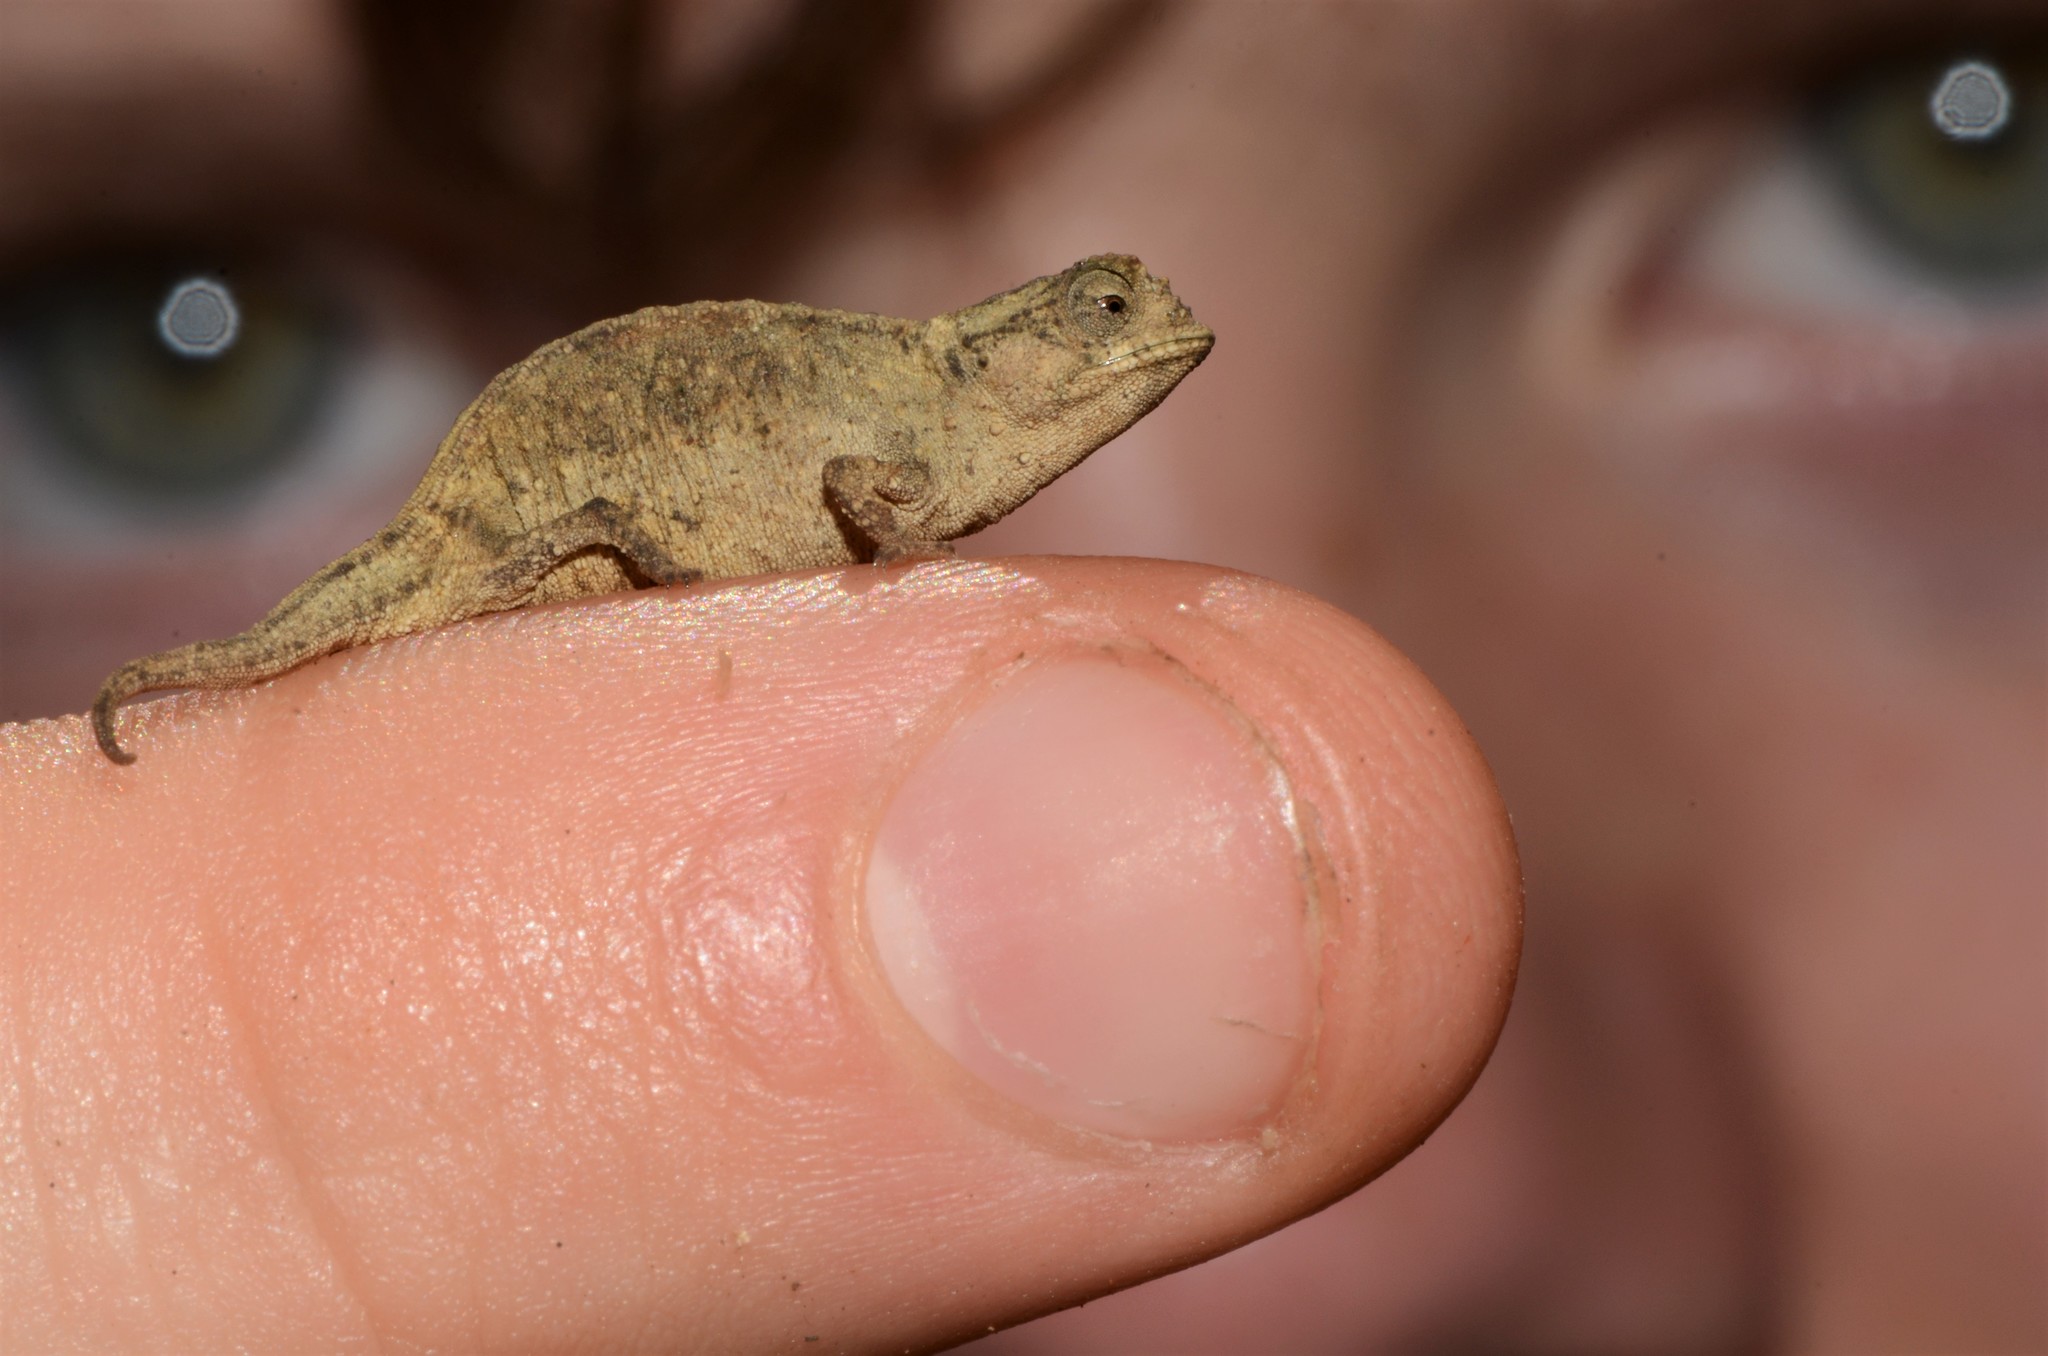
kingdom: Animalia
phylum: Chordata
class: Squamata
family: Chamaeleonidae
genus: Brookesia
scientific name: Brookesia tuberculata
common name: Mount d'ambre leaf chameleon
